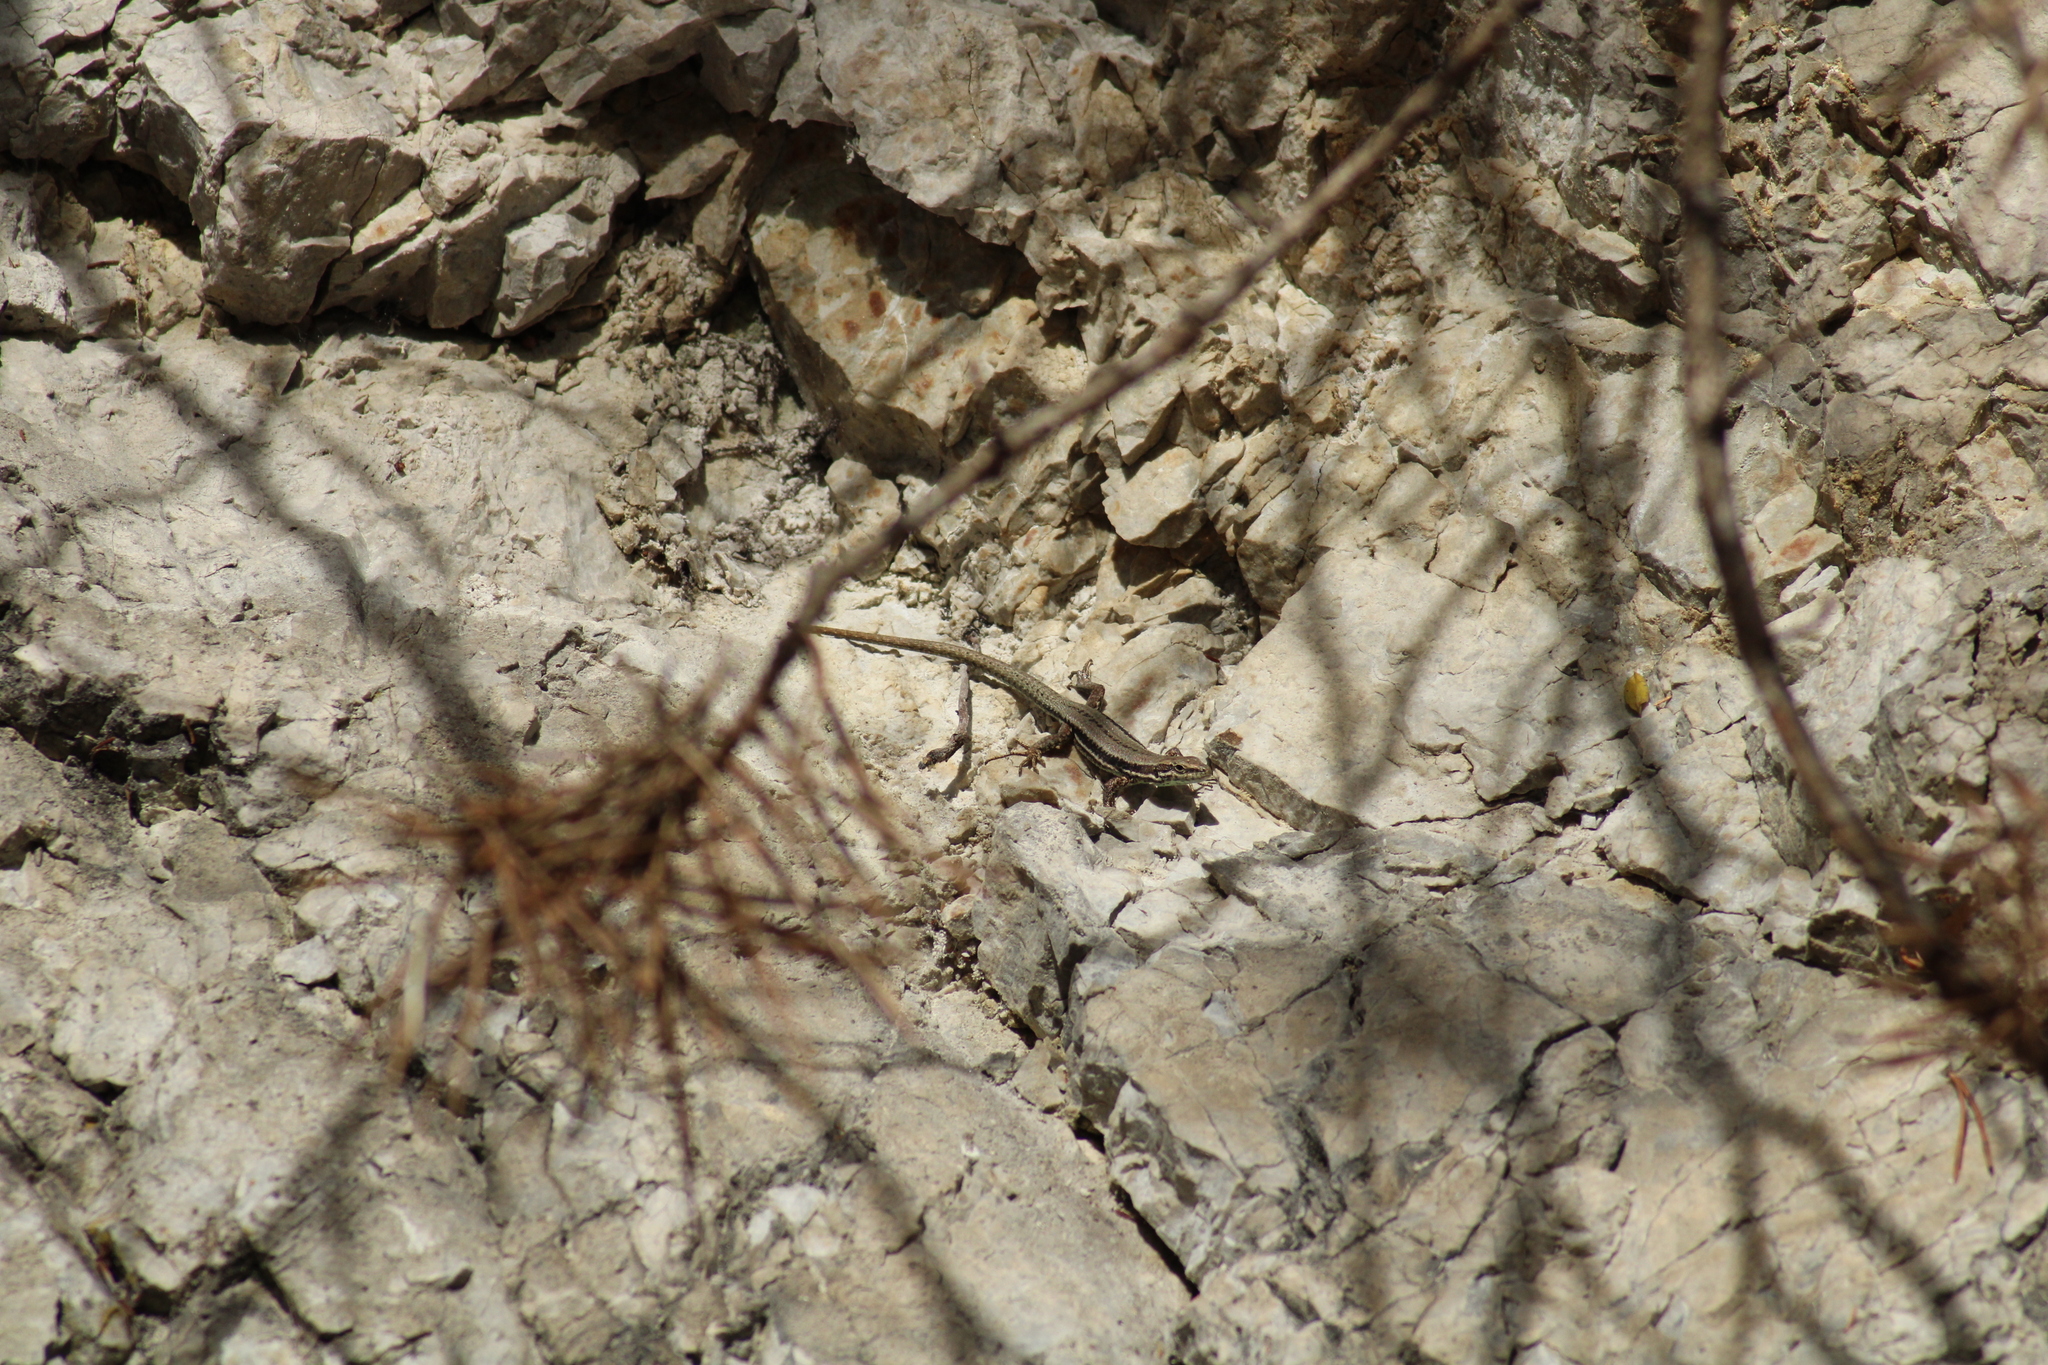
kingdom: Animalia
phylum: Chordata
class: Squamata
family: Lacertidae
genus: Podarcis
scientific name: Podarcis muralis
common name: Common wall lizard
